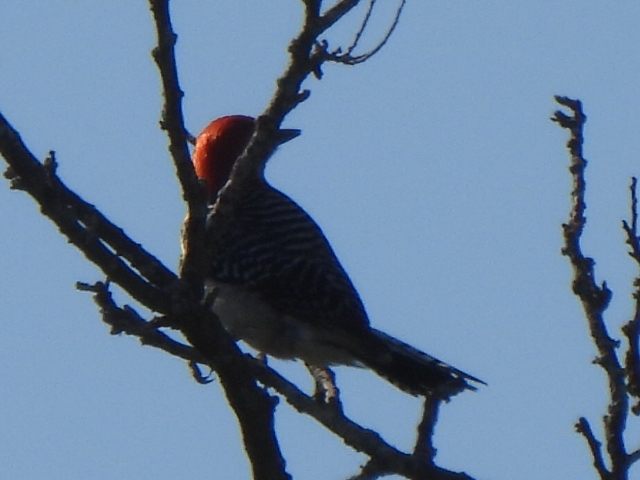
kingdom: Animalia
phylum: Chordata
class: Aves
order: Piciformes
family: Picidae
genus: Melanerpes
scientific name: Melanerpes carolinus
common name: Red-bellied woodpecker
